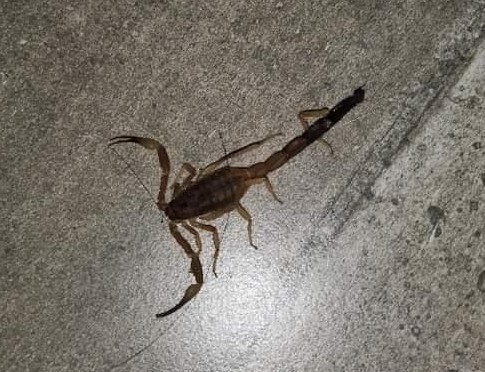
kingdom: Animalia
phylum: Arthropoda
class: Arachnida
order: Scorpiones
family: Buthidae
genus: Tityus
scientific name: Tityus carrilloi
